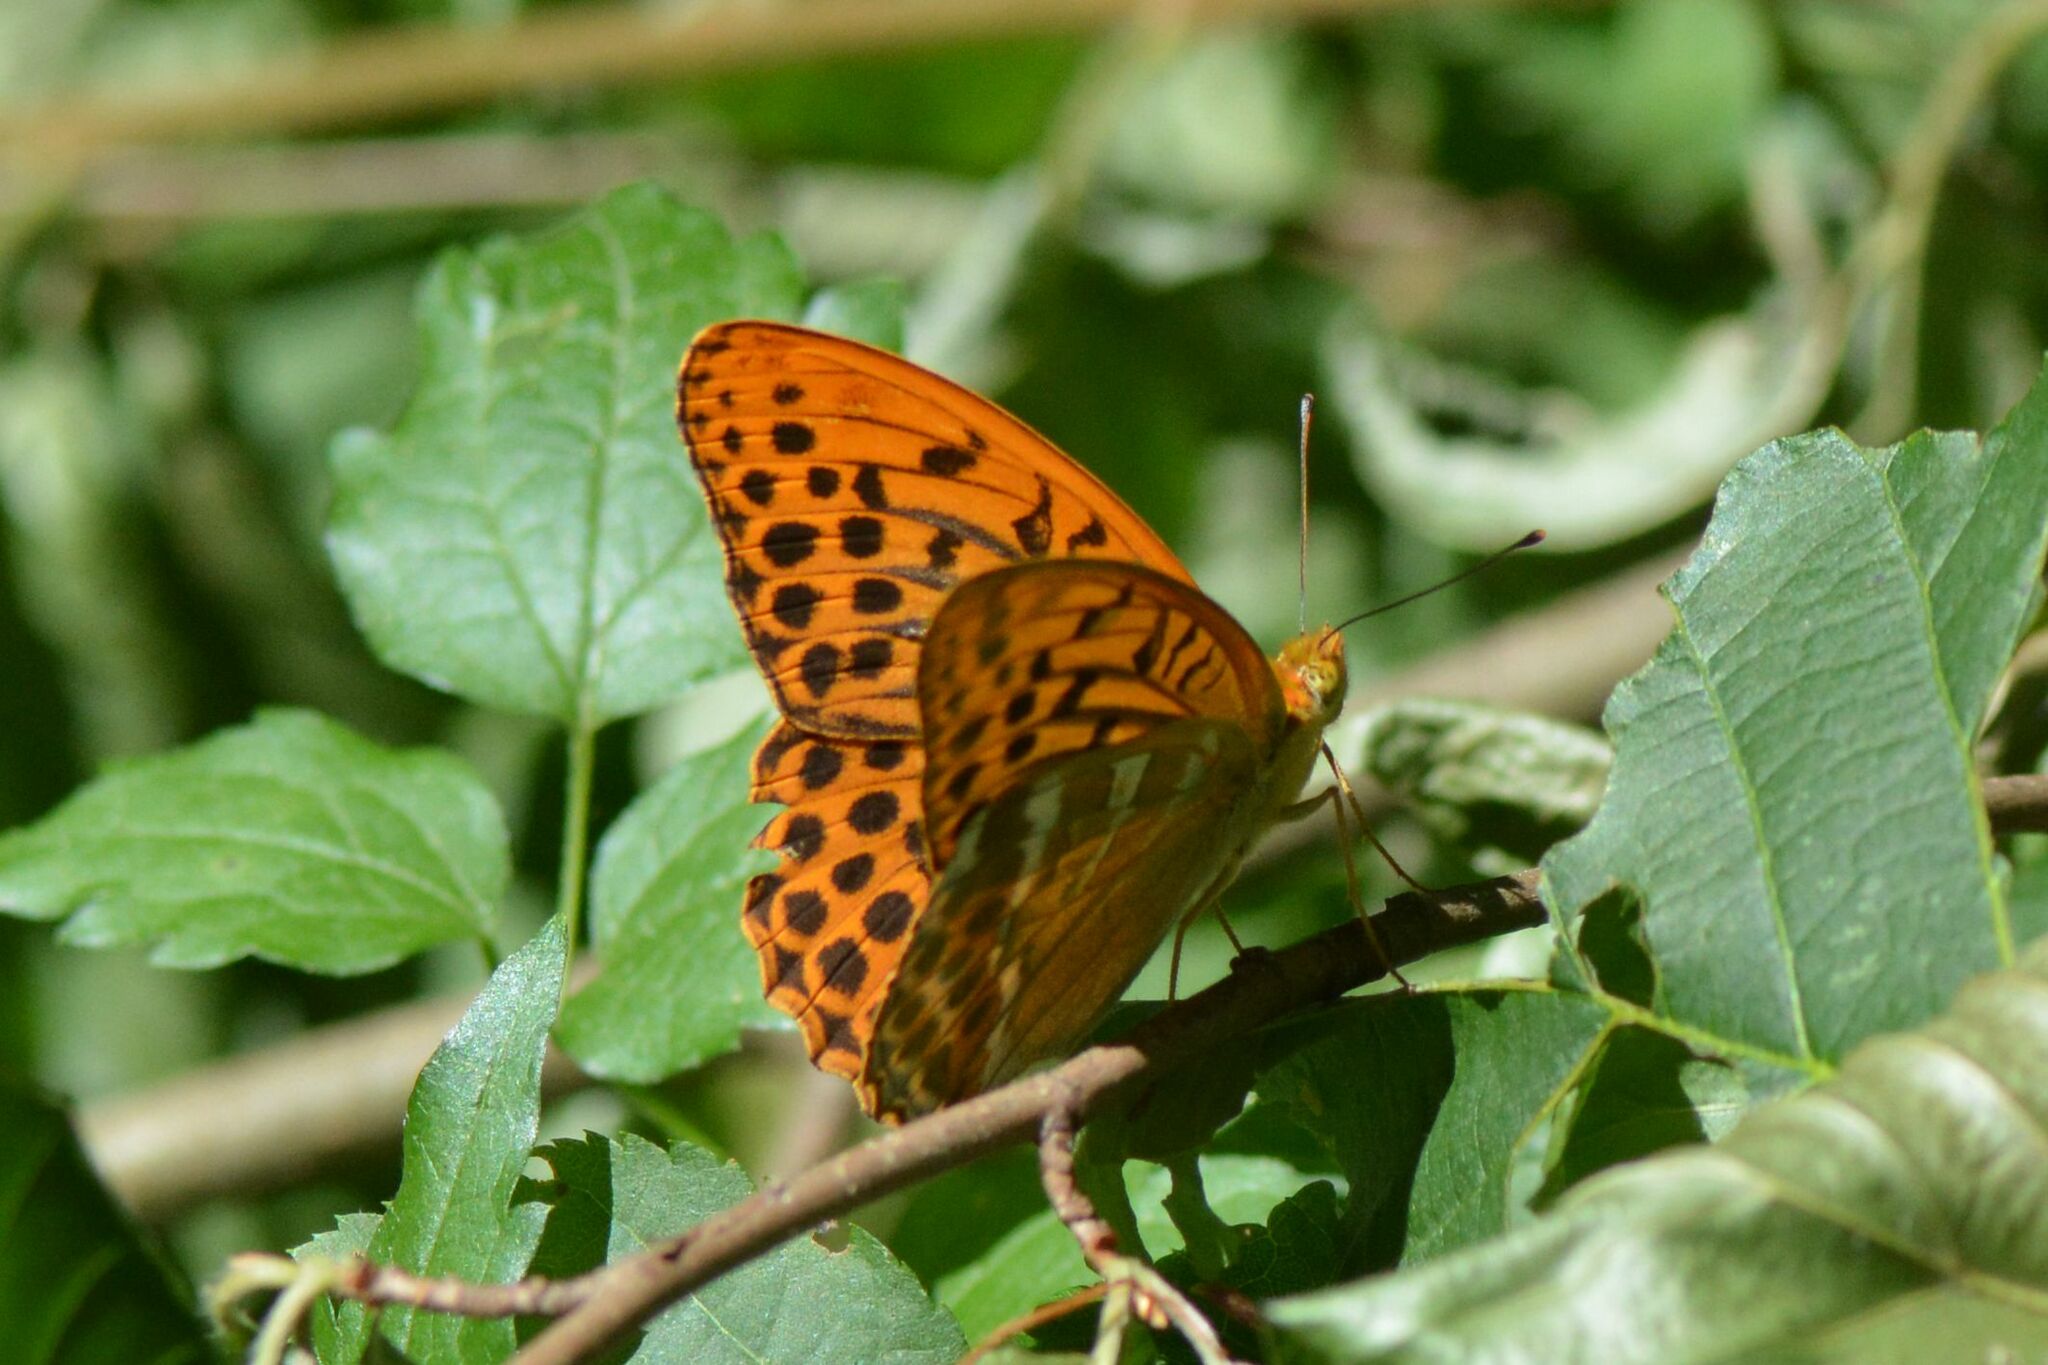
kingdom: Animalia
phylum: Arthropoda
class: Insecta
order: Lepidoptera
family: Nymphalidae
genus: Argynnis
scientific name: Argynnis paphia
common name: Silver-washed fritillary
